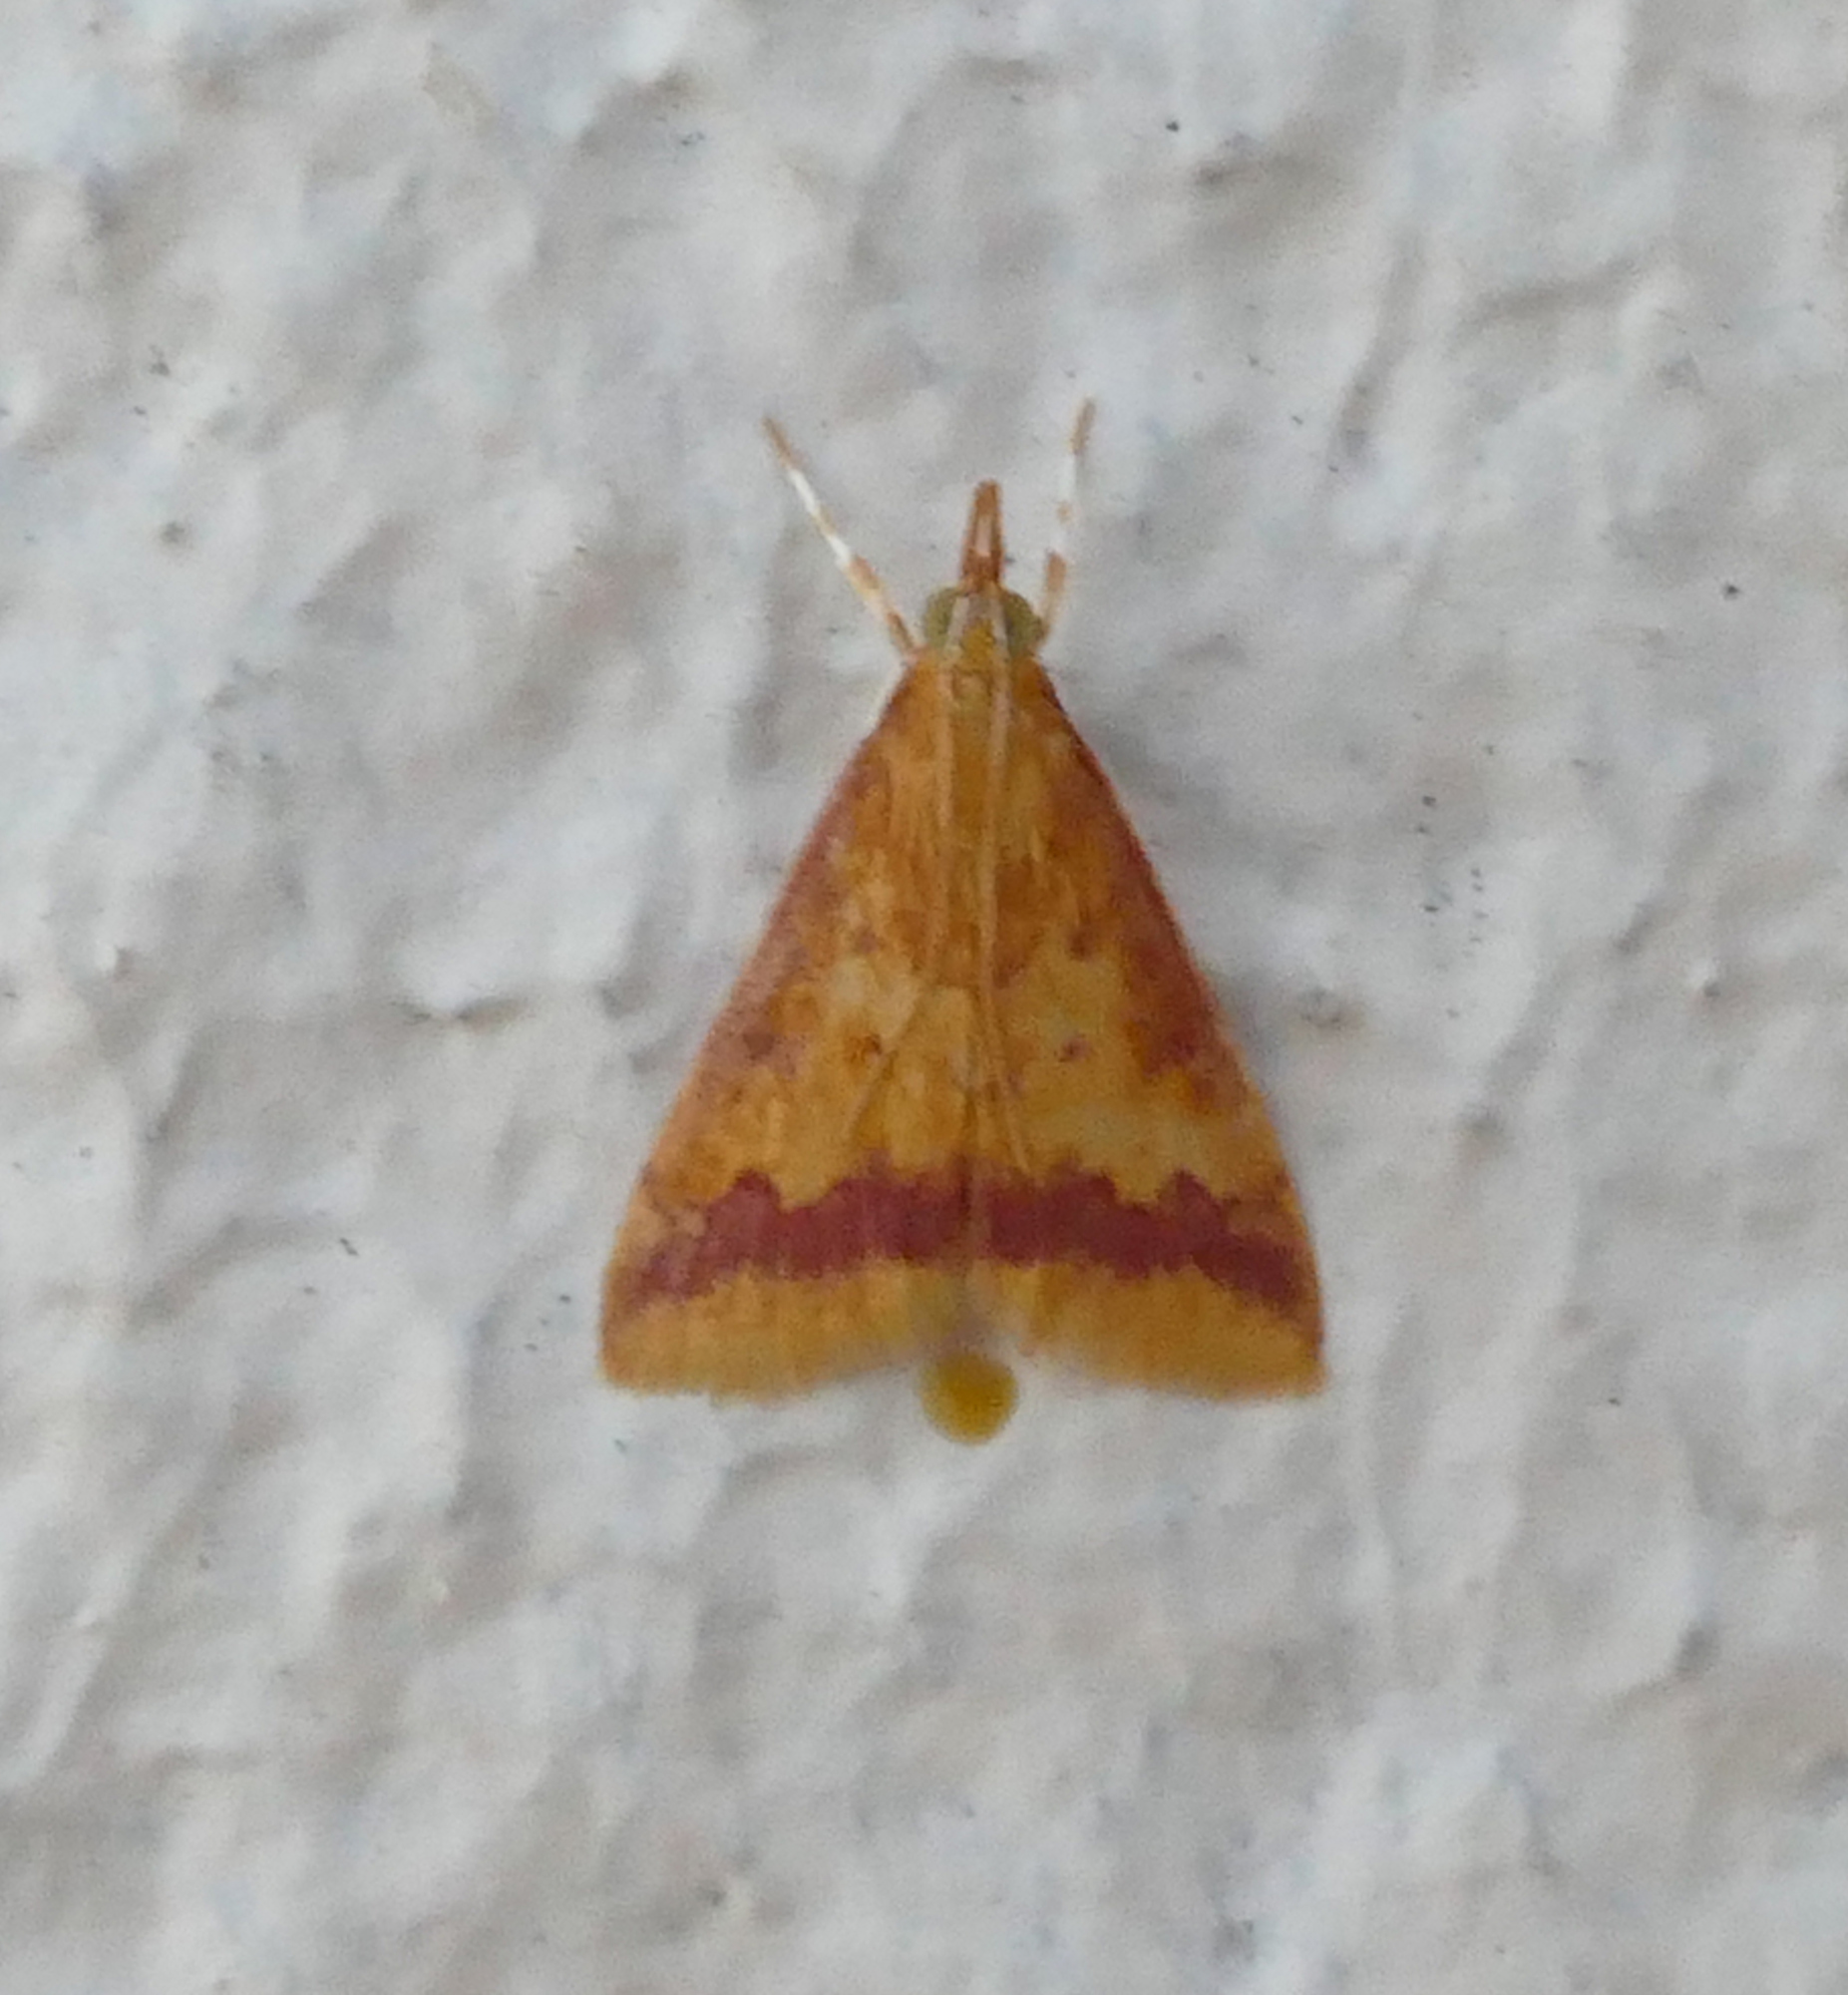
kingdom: Animalia
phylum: Arthropoda
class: Insecta
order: Lepidoptera
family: Crambidae
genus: Hyalorista
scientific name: Hyalorista taeniolalis
